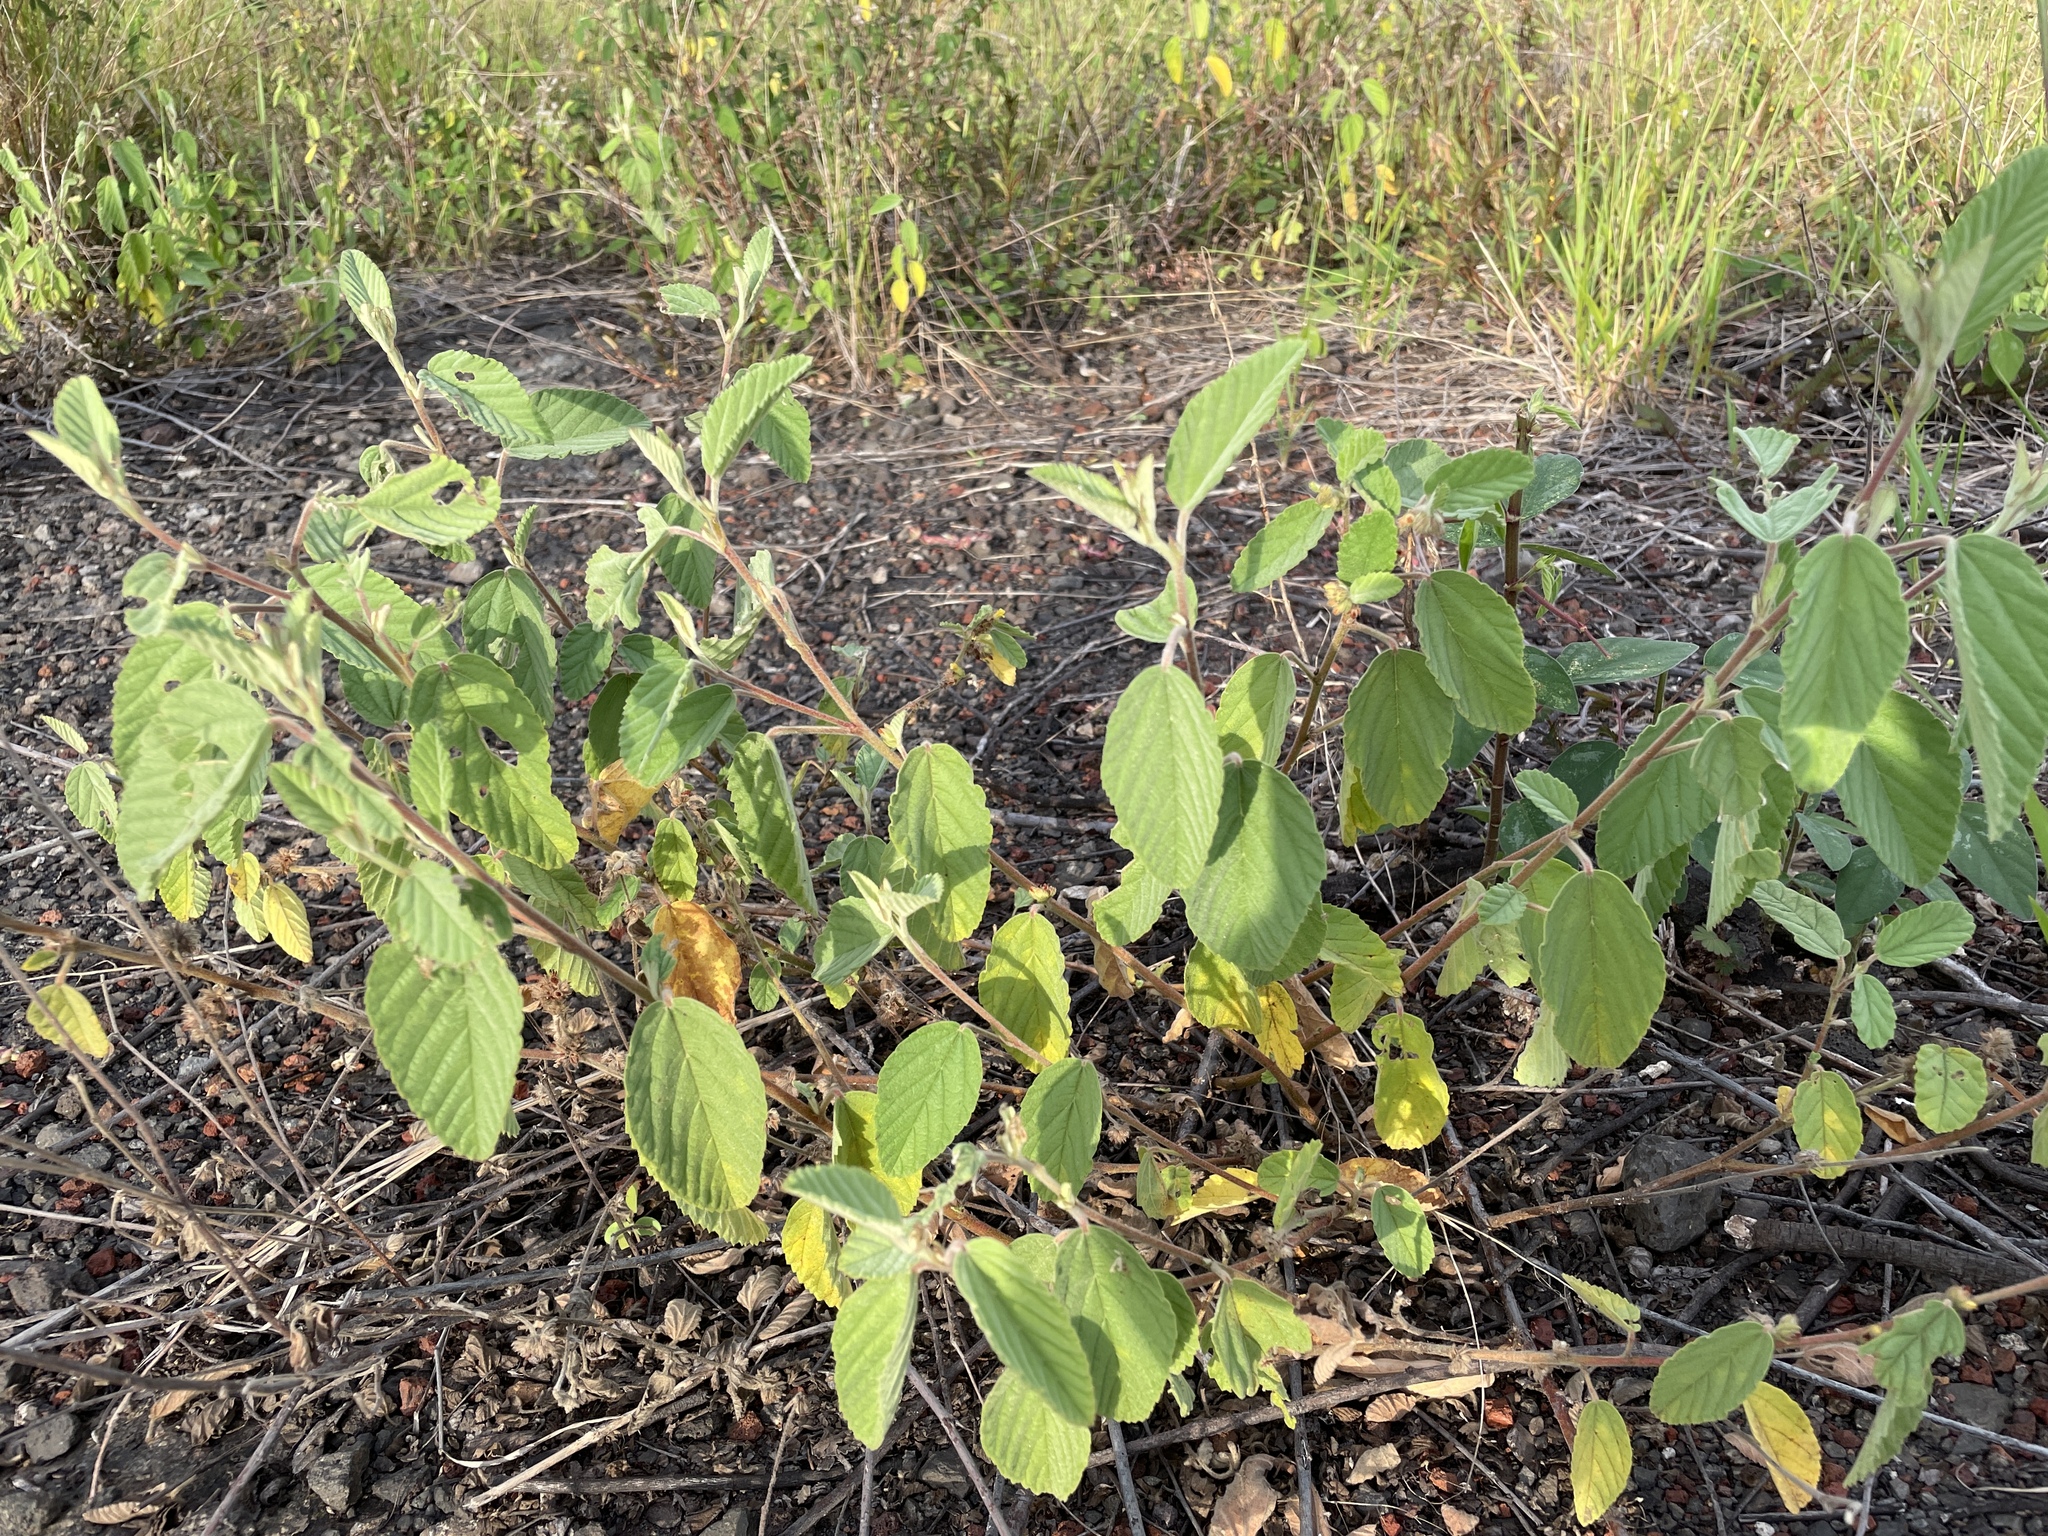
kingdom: Plantae
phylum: Tracheophyta
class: Magnoliopsida
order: Malvales
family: Malvaceae
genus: Waltheria
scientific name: Waltheria indica
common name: Leather-coat
